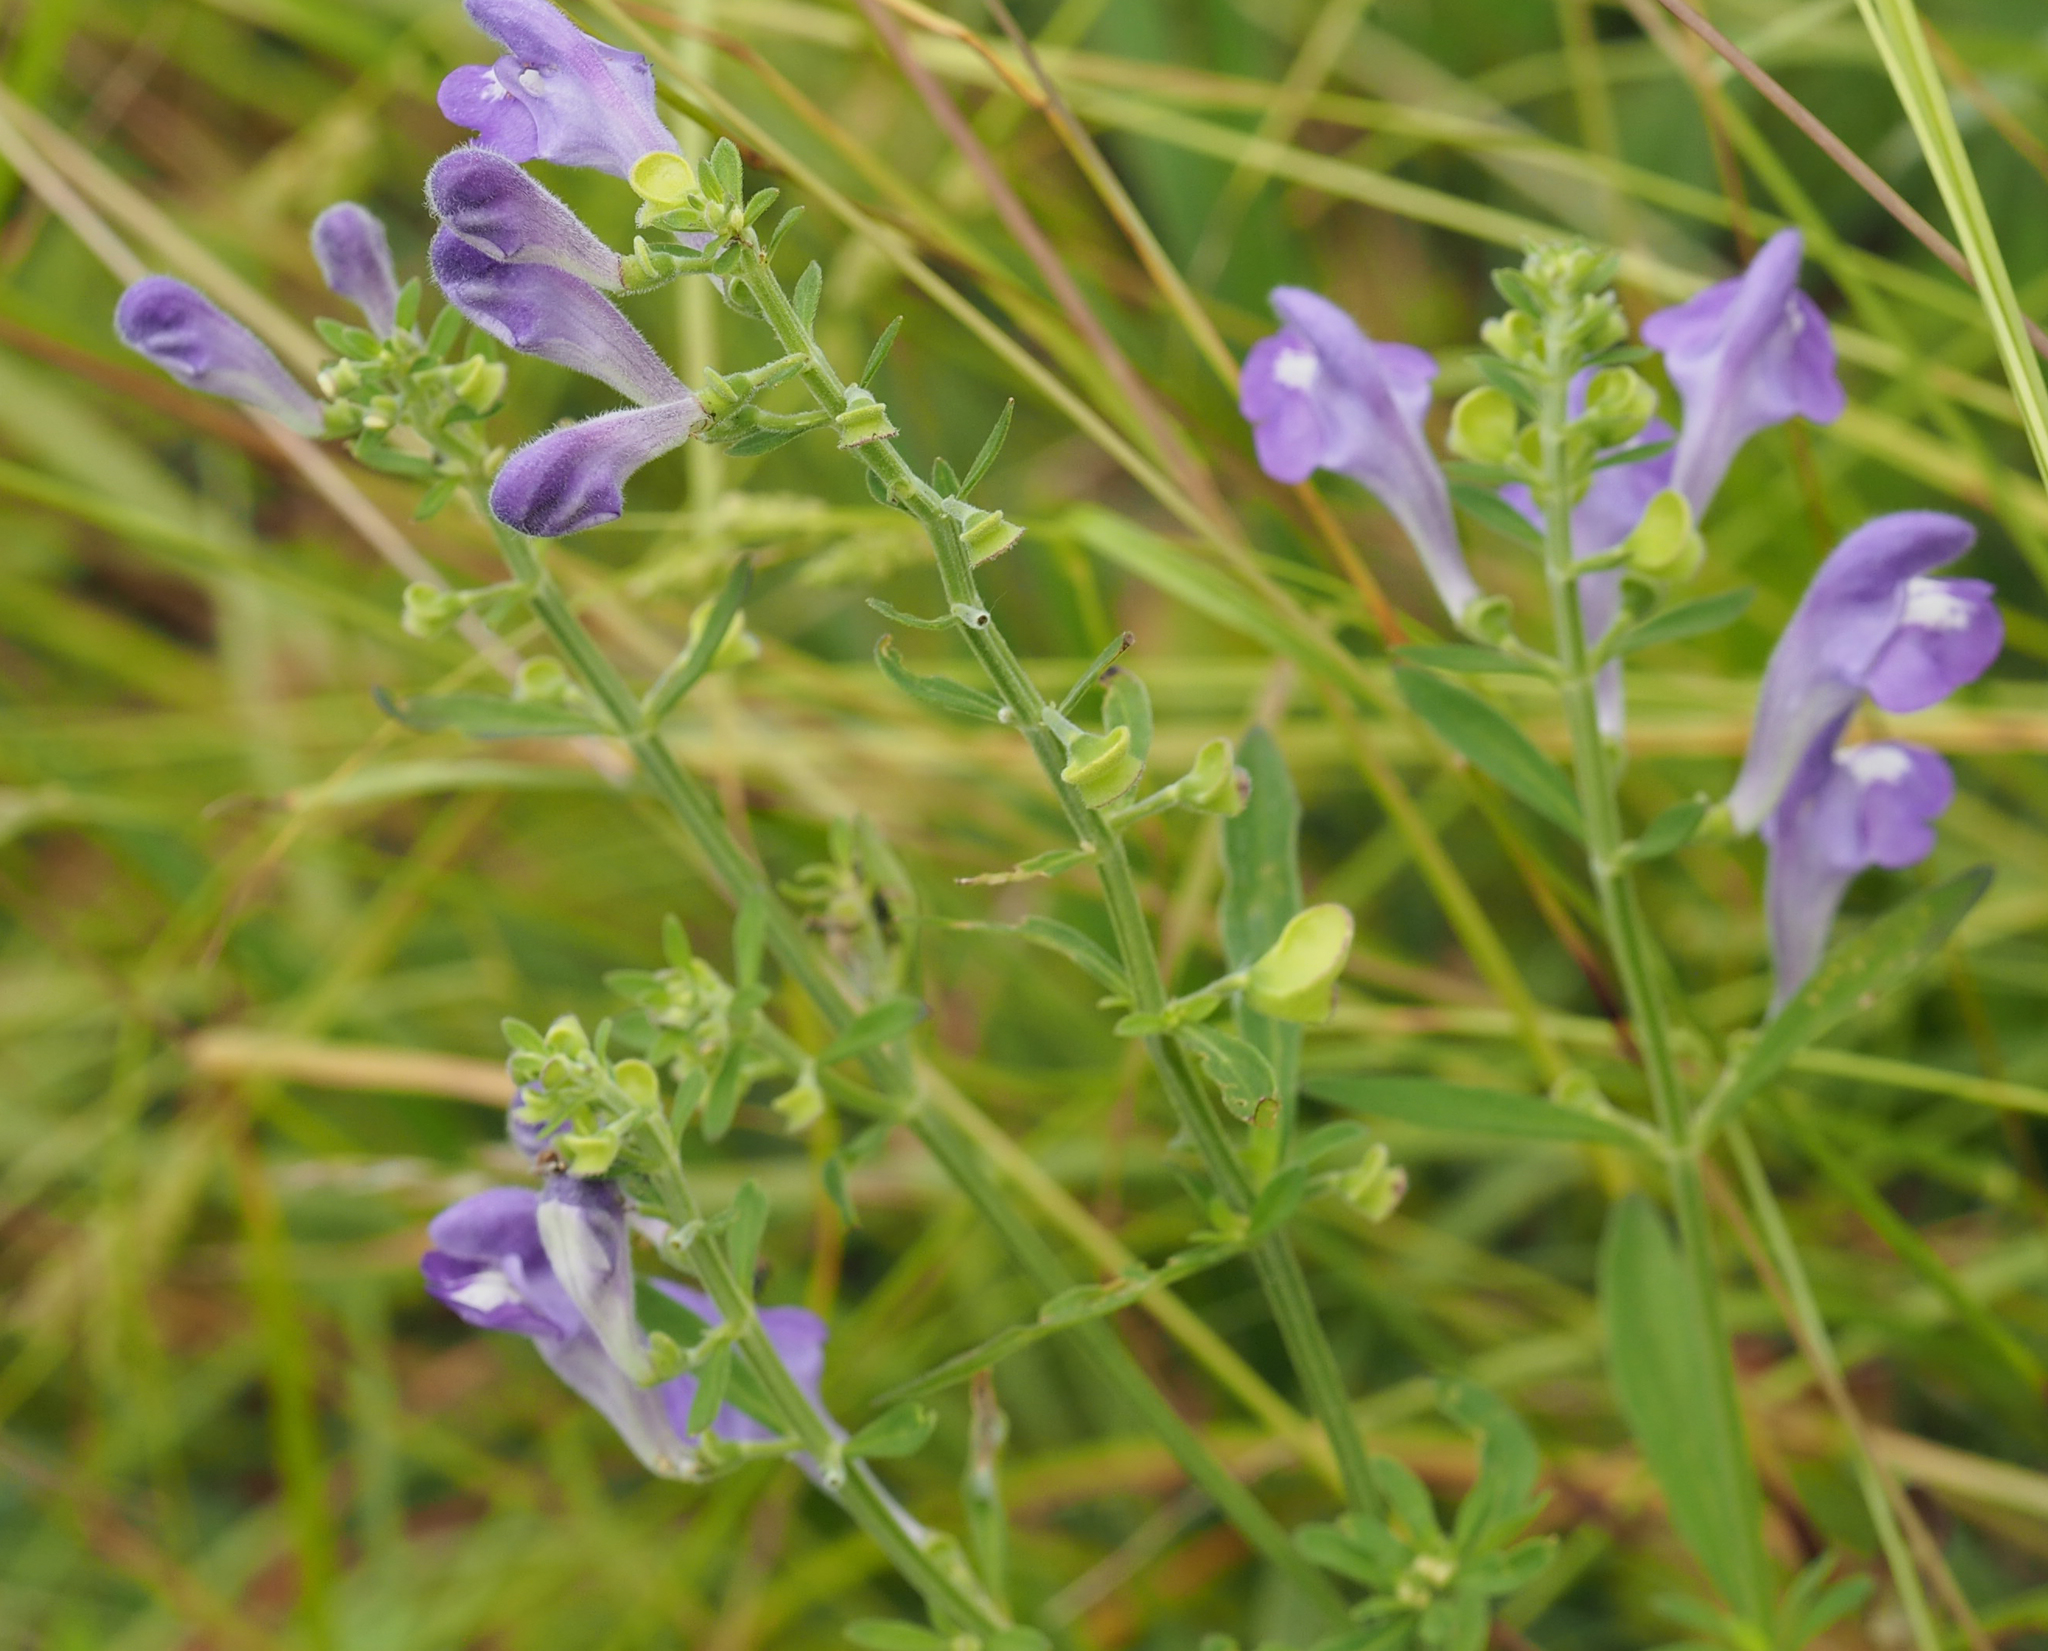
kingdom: Plantae
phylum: Tracheophyta
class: Magnoliopsida
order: Lamiales
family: Lamiaceae
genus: Scutellaria
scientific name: Scutellaria integrifolia
